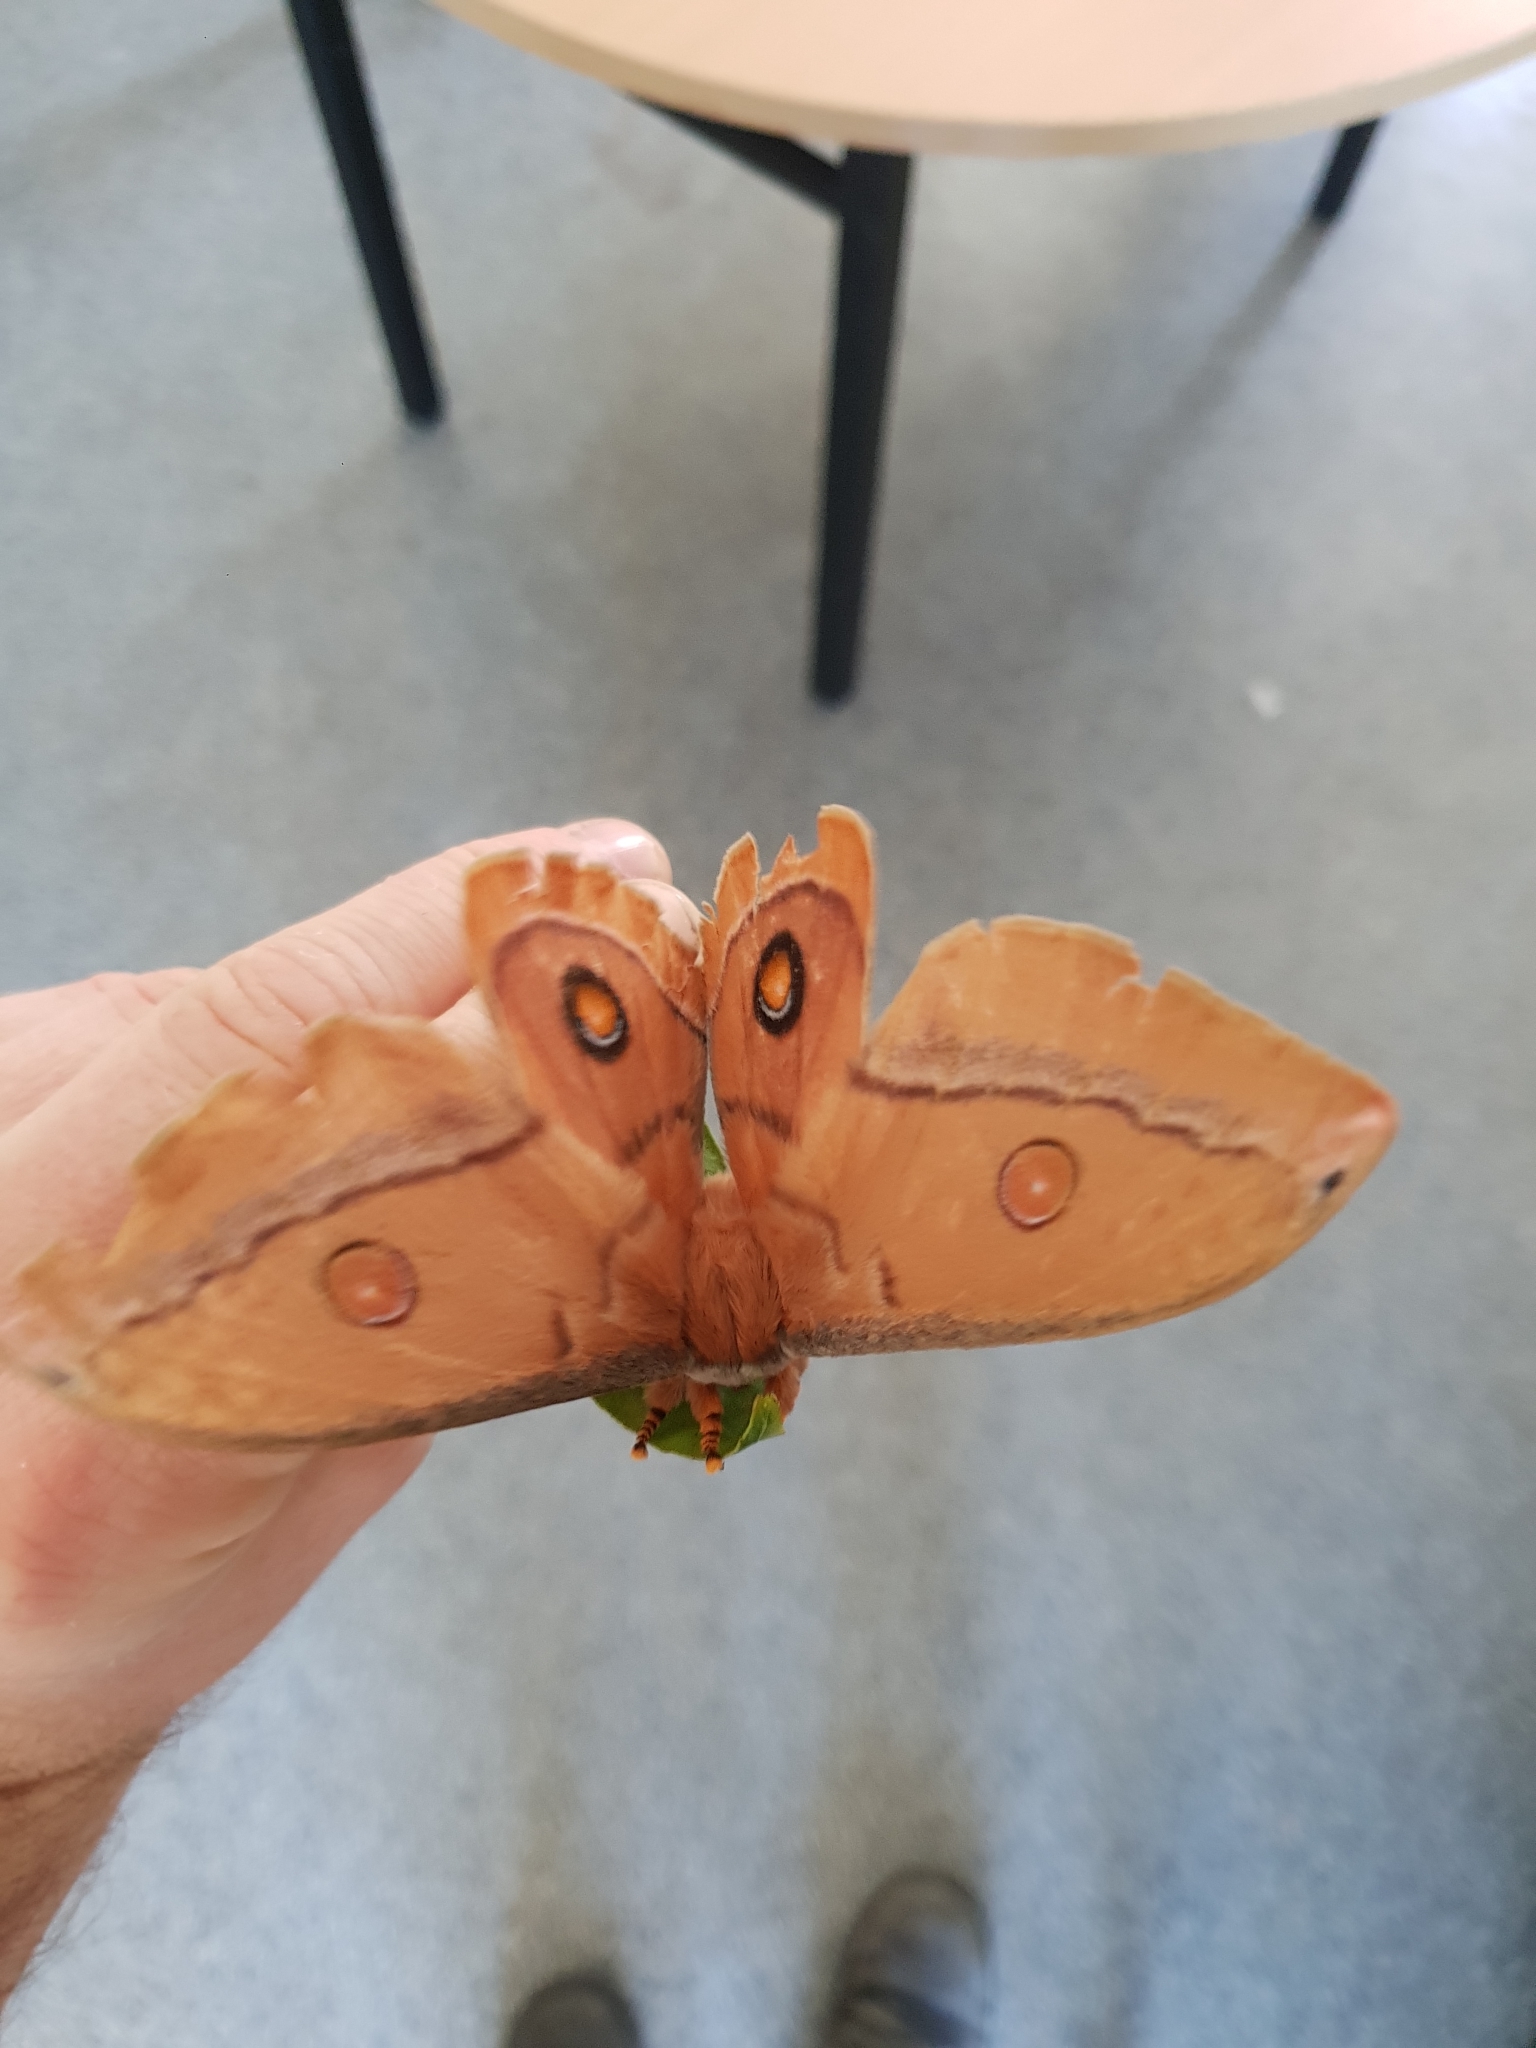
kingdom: Animalia
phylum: Arthropoda
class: Insecta
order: Lepidoptera
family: Saturniidae
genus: Opodiphthera
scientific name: Opodiphthera
